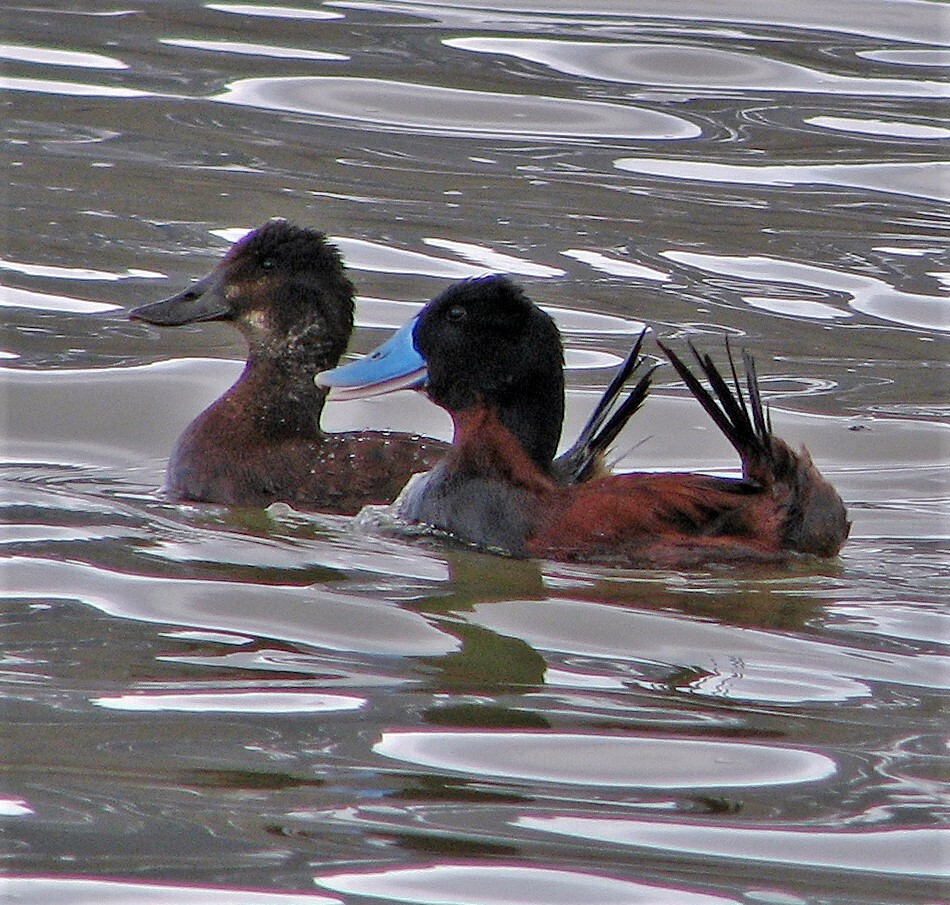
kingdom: Animalia
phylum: Chordata
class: Aves
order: Anseriformes
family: Anatidae
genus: Oxyura
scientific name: Oxyura ferruginea
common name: Andean duck
